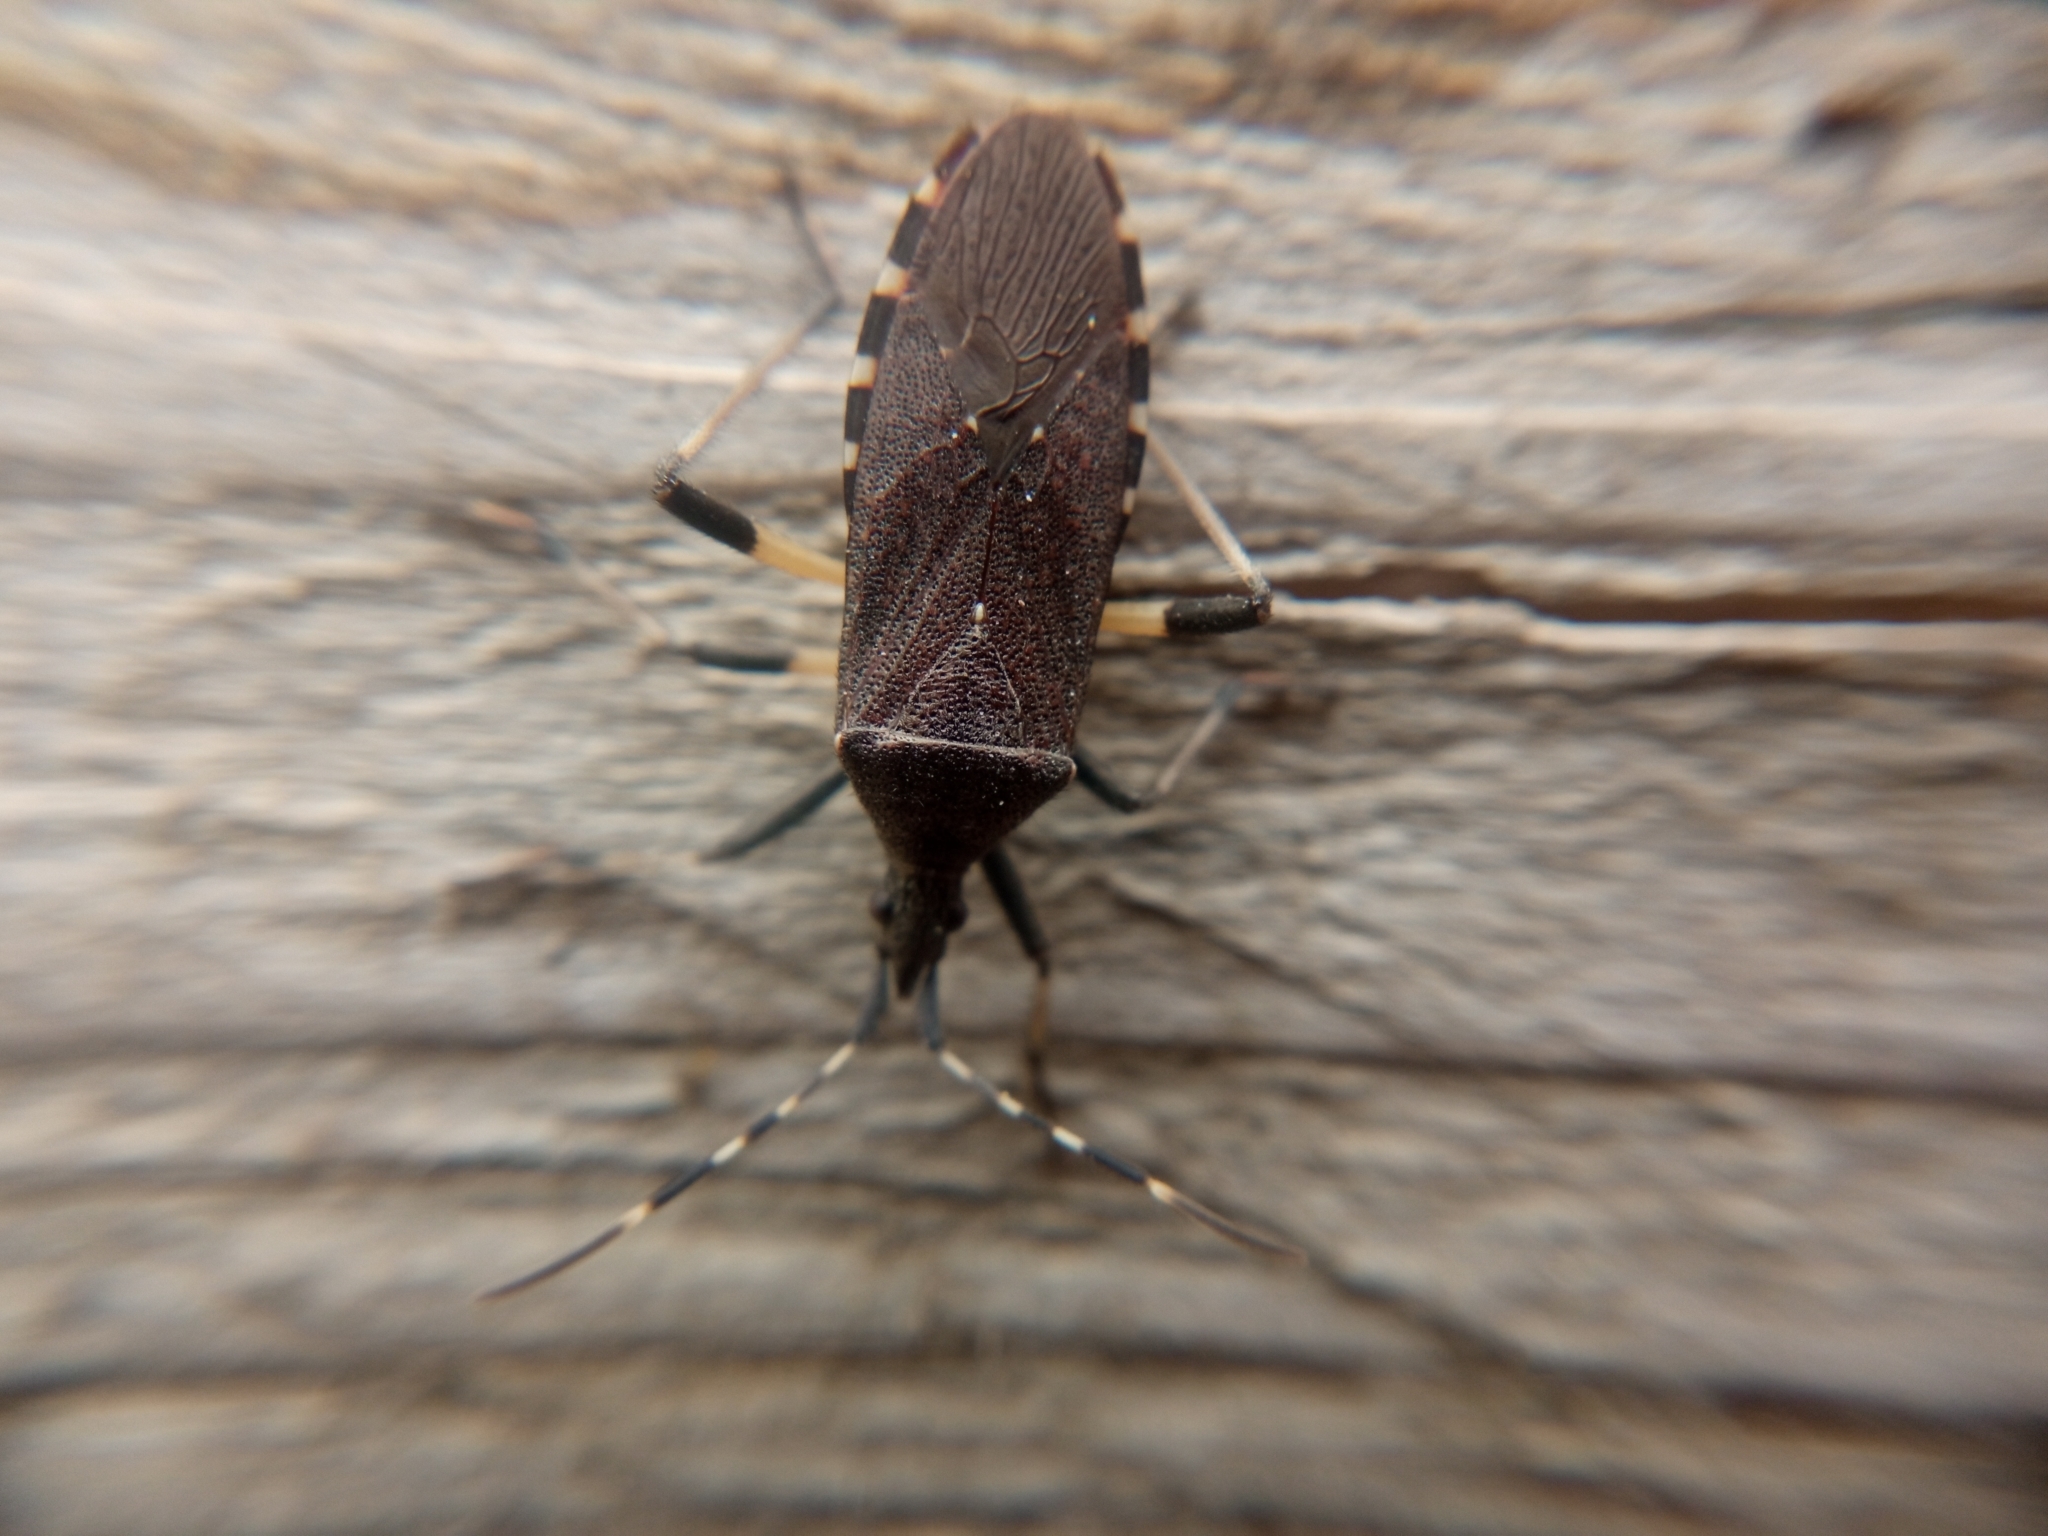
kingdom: Animalia
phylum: Arthropoda
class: Insecta
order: Hemiptera
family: Stenocephalidae
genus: Dicranocephalus
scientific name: Dicranocephalus agilis
